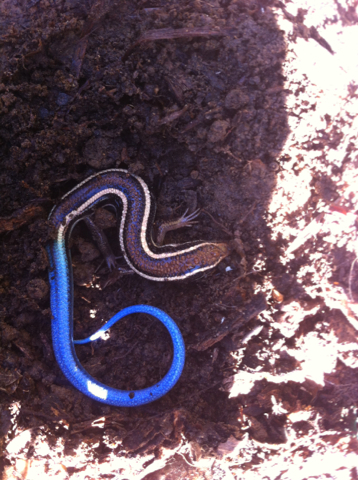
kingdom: Animalia
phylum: Chordata
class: Squamata
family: Scincidae
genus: Plestiodon
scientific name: Plestiodon skiltonianus
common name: Coronado island skink [interparietalis]
